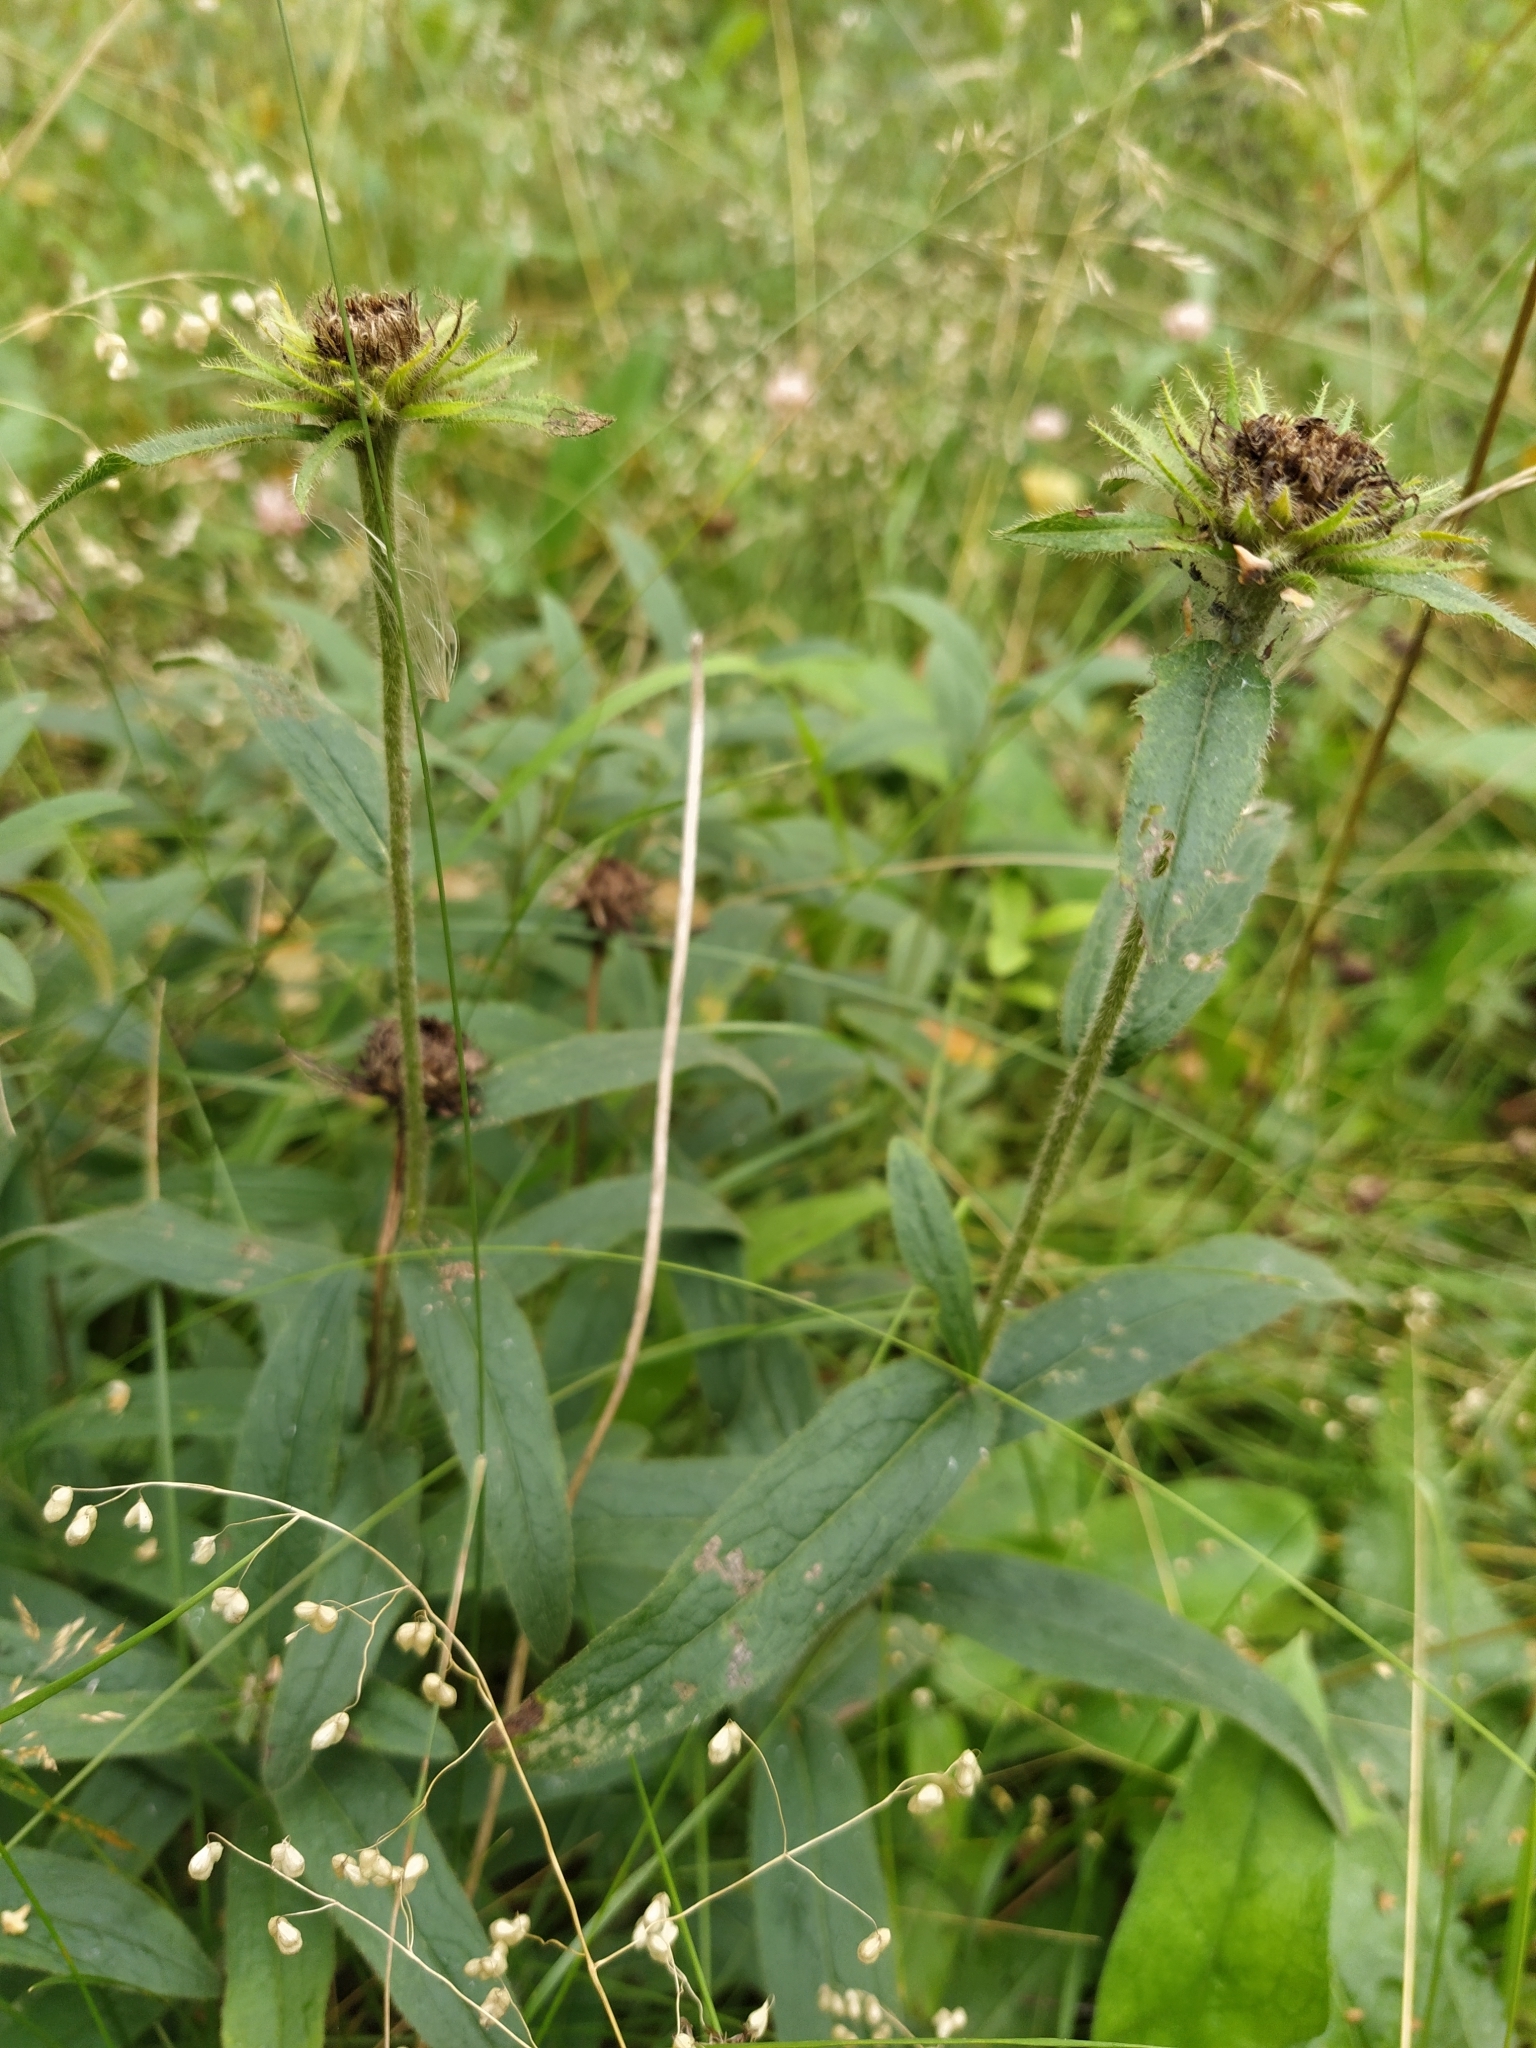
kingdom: Plantae
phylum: Tracheophyta
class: Magnoliopsida
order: Asterales
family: Asteraceae
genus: Pentanema
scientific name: Pentanema hirtum
